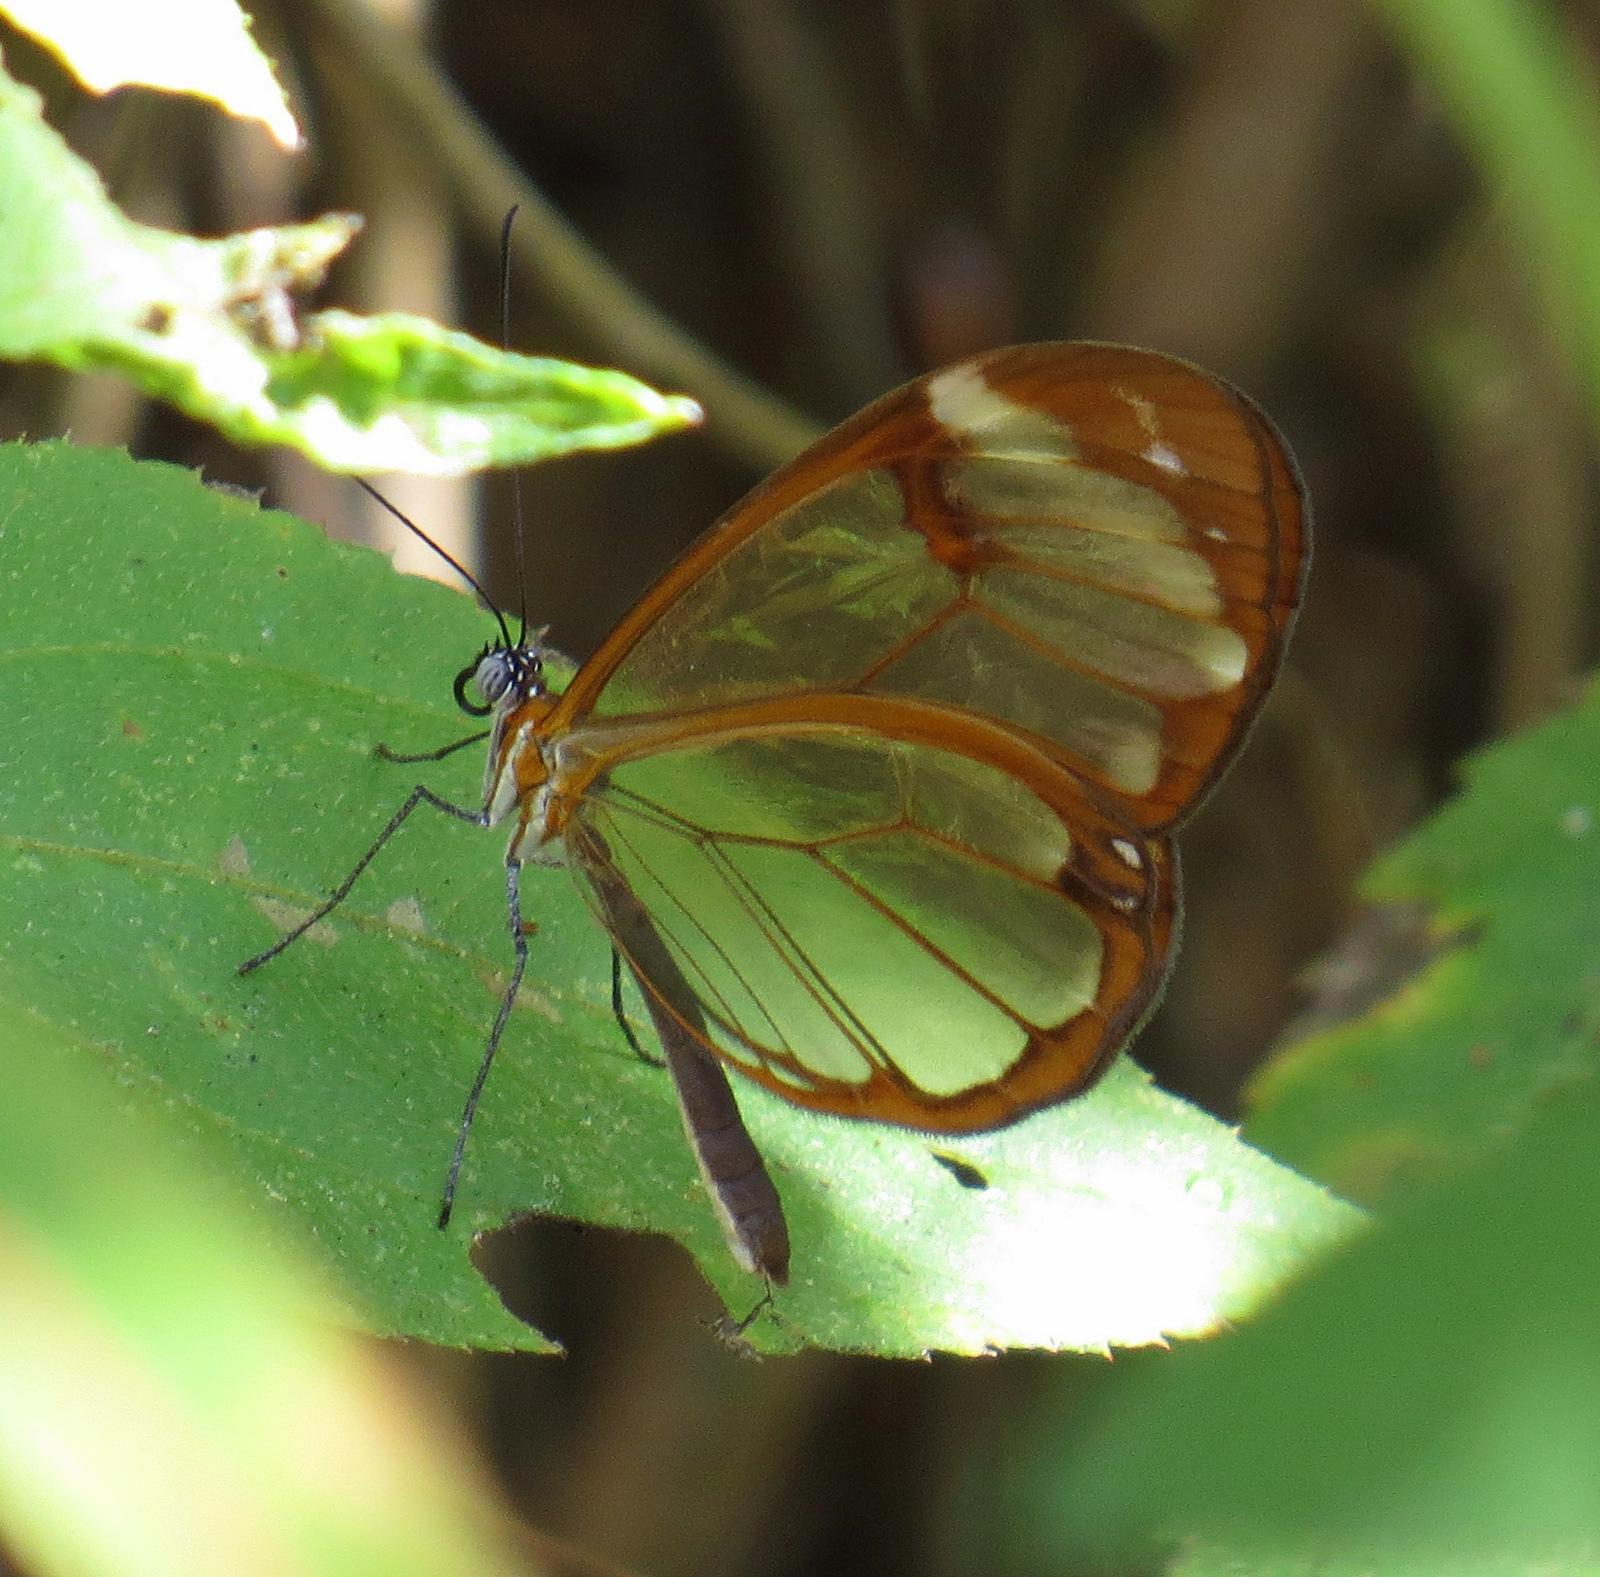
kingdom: Animalia
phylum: Arthropoda
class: Insecta
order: Lepidoptera
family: Nymphalidae
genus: Greta
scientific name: Greta morgane
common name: Thick-tipped greta
